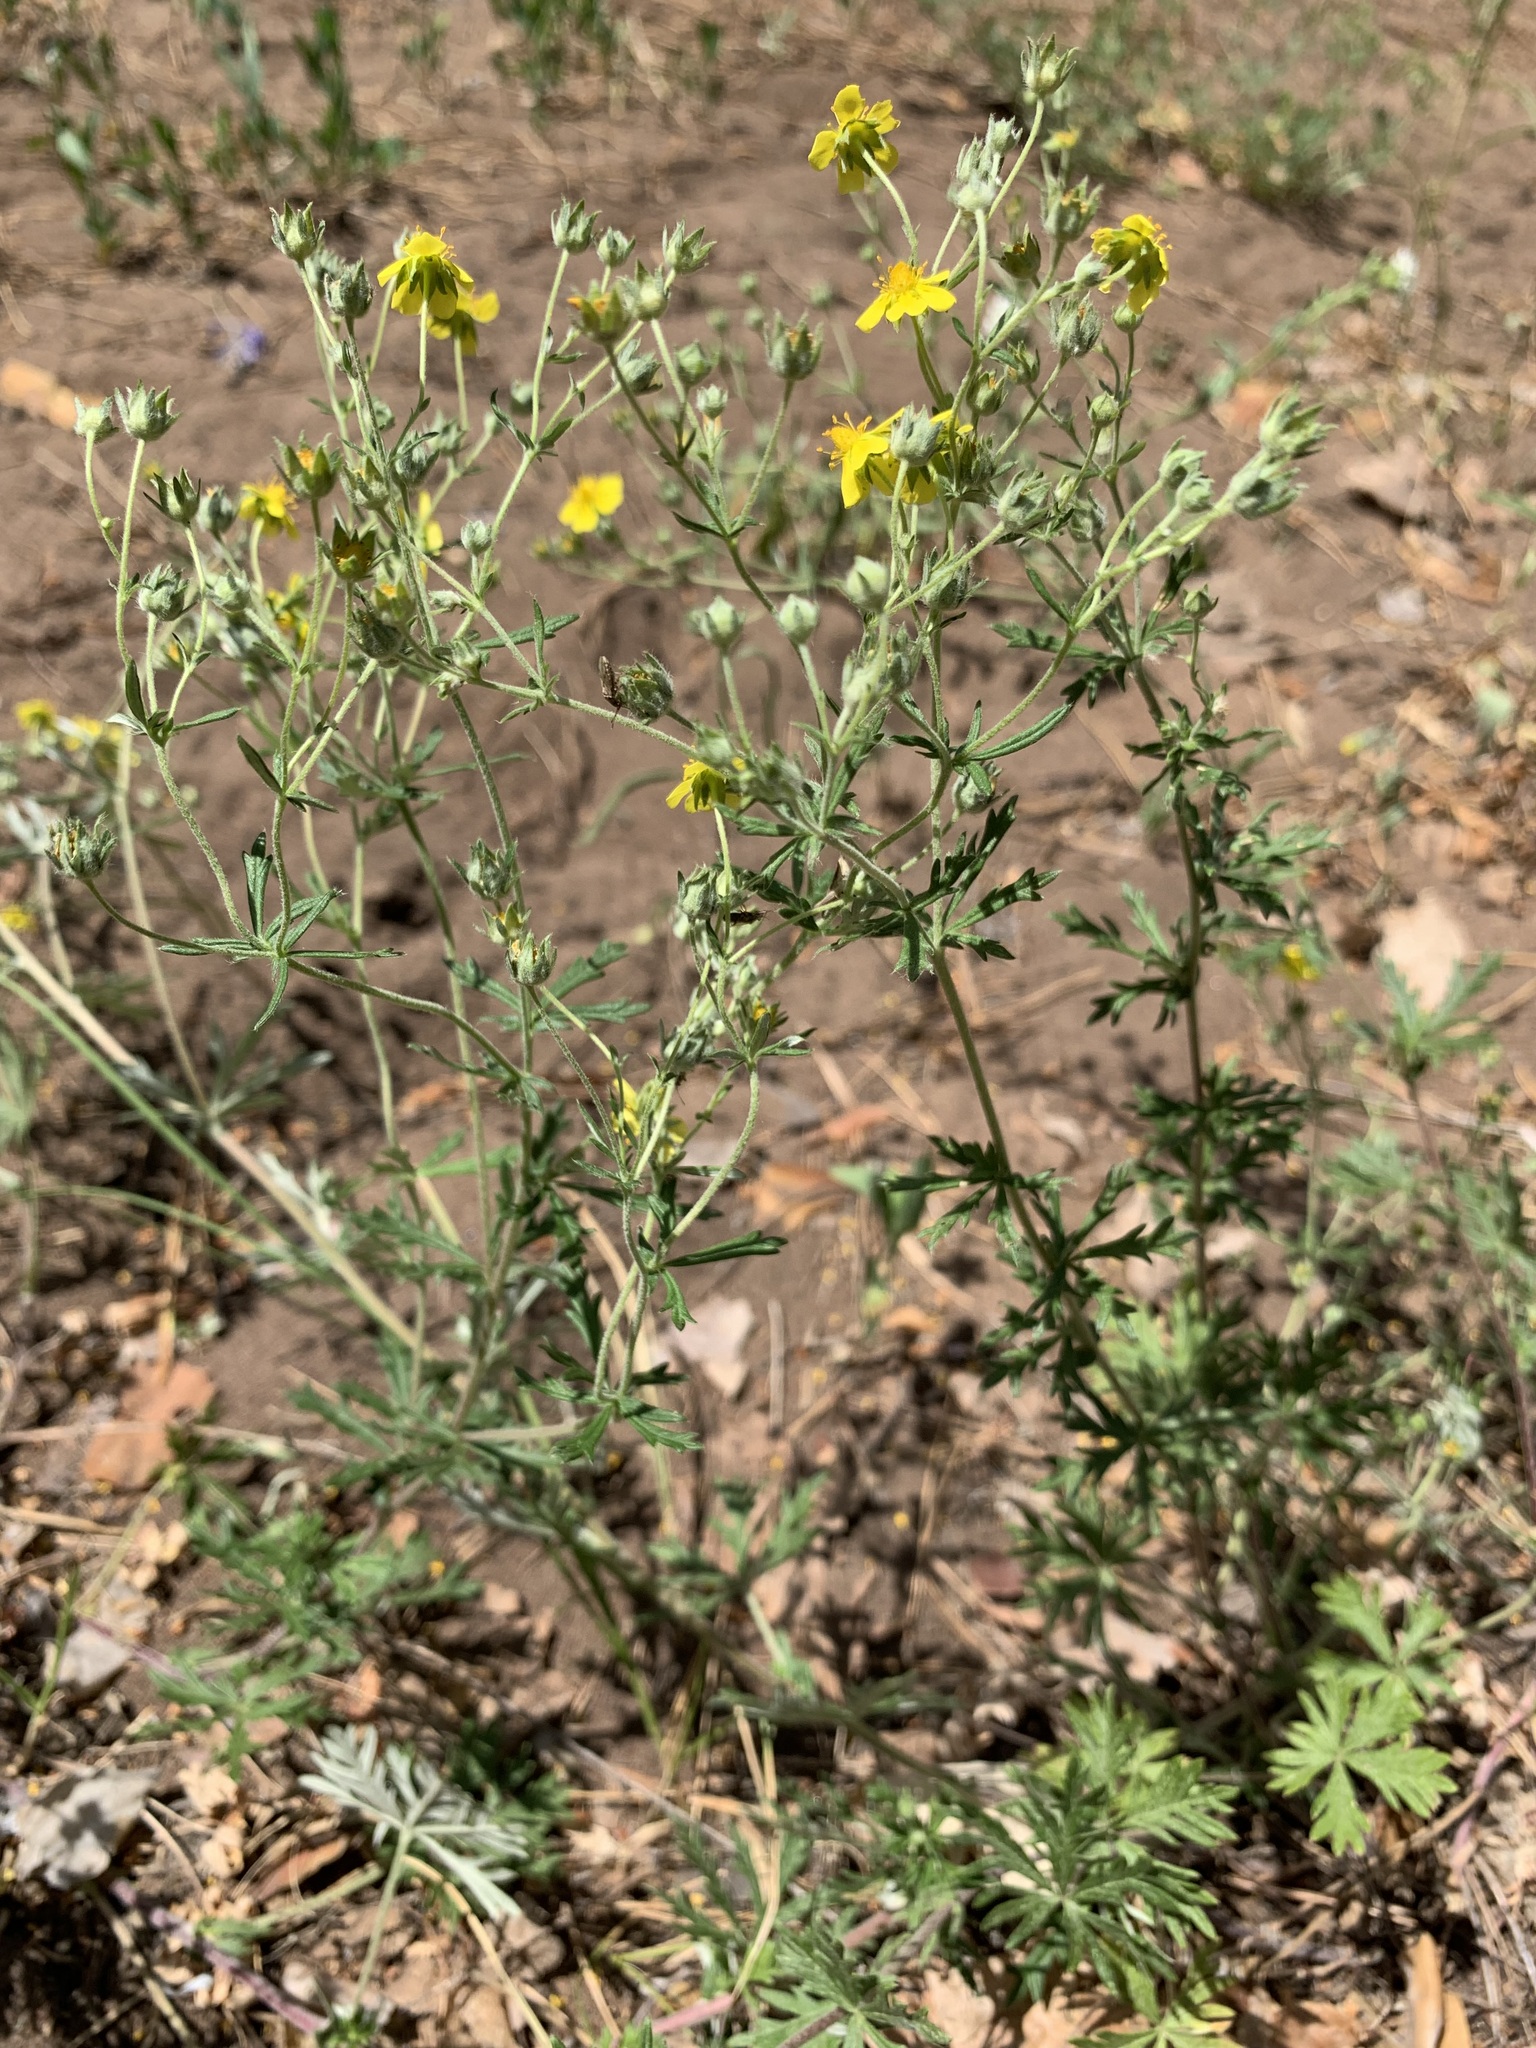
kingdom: Plantae
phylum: Tracheophyta
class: Magnoliopsida
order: Rosales
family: Rosaceae
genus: Potentilla
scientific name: Potentilla argentea
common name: Hoary cinquefoil
